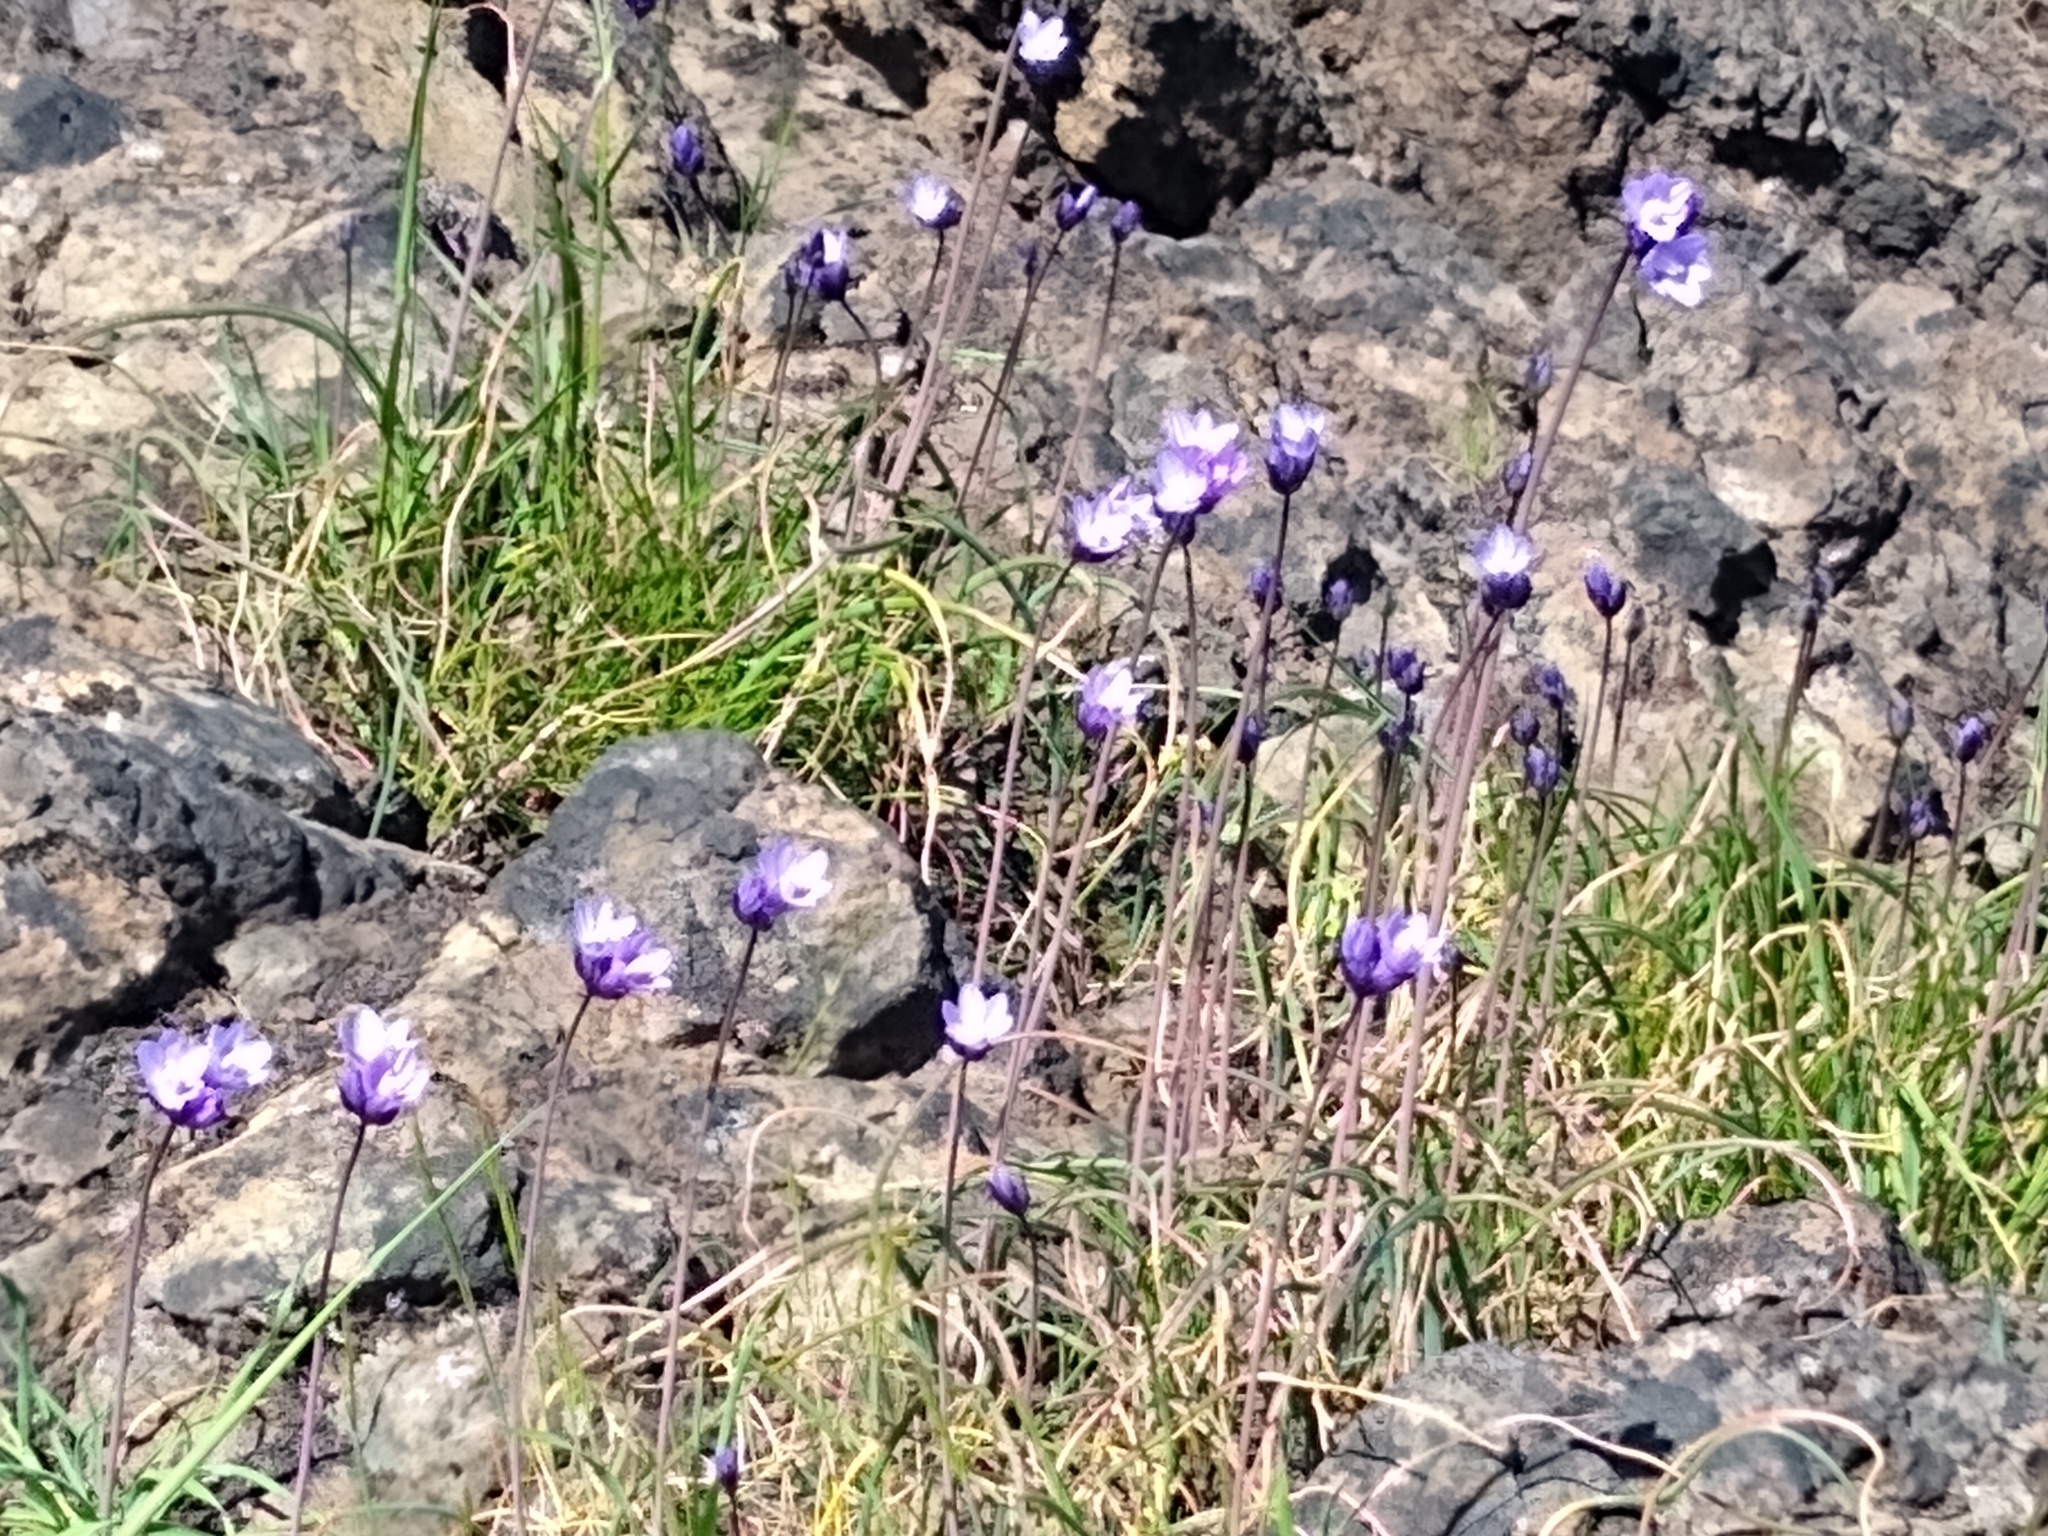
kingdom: Plantae
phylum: Tracheophyta
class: Liliopsida
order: Asparagales
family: Asparagaceae
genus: Dipterostemon
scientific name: Dipterostemon capitatus
